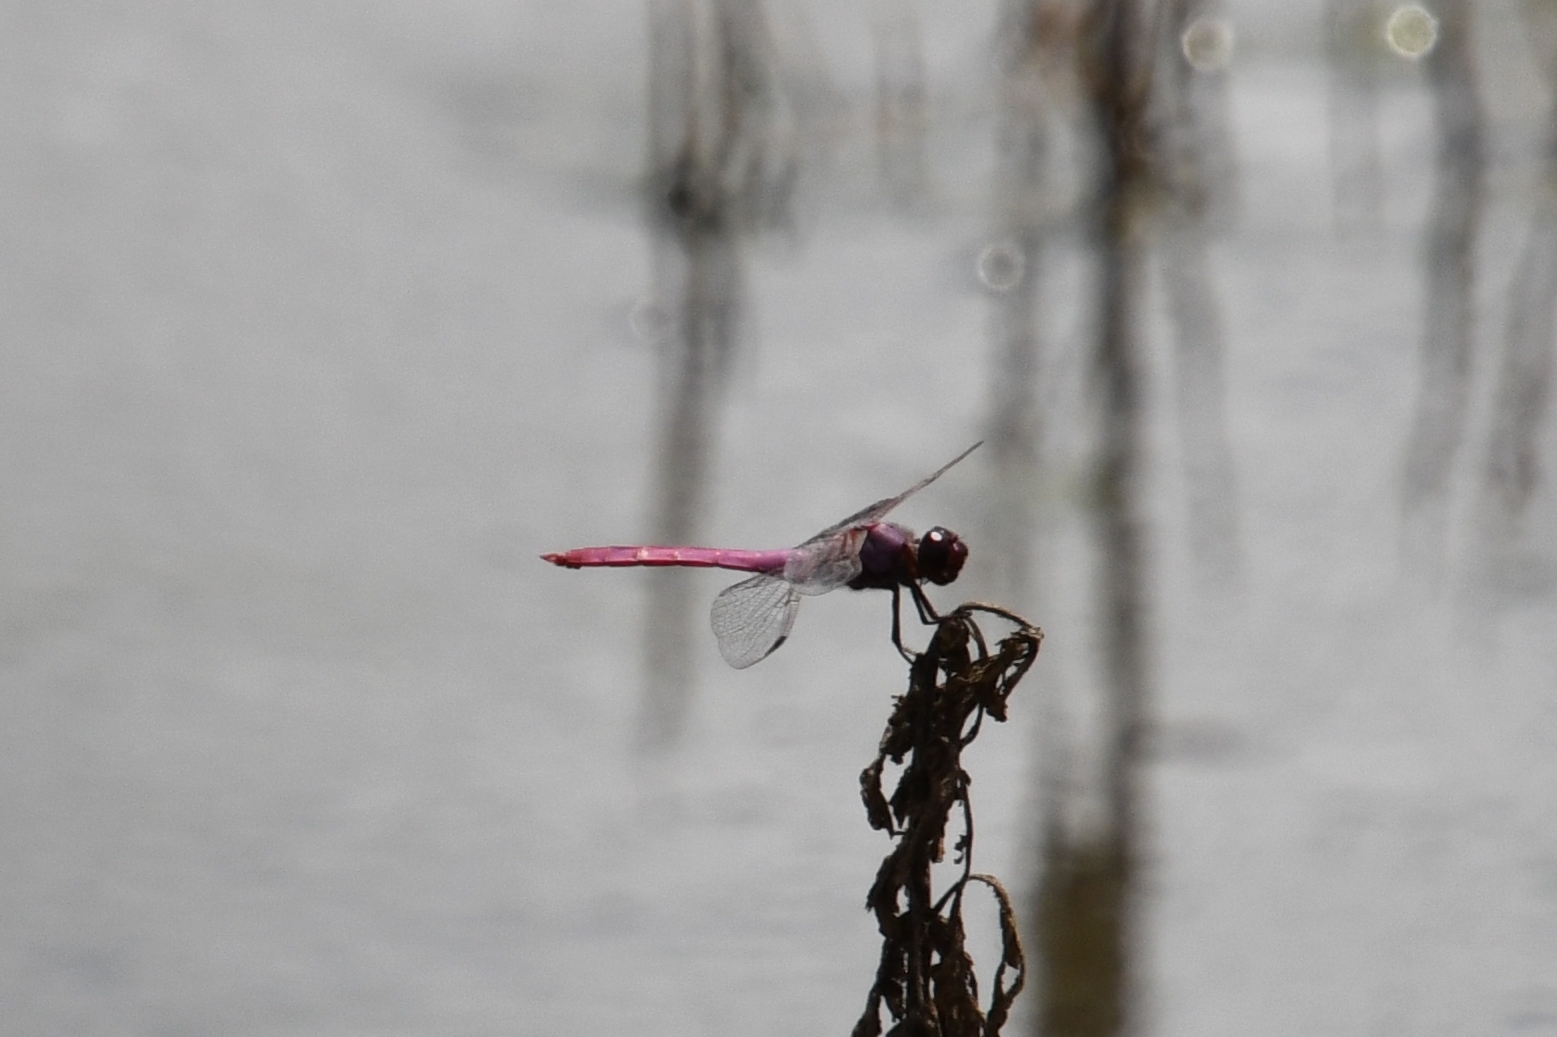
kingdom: Animalia
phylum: Arthropoda
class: Insecta
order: Odonata
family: Libellulidae
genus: Orthemis
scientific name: Orthemis ferruginea
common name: Roseate skimmer
